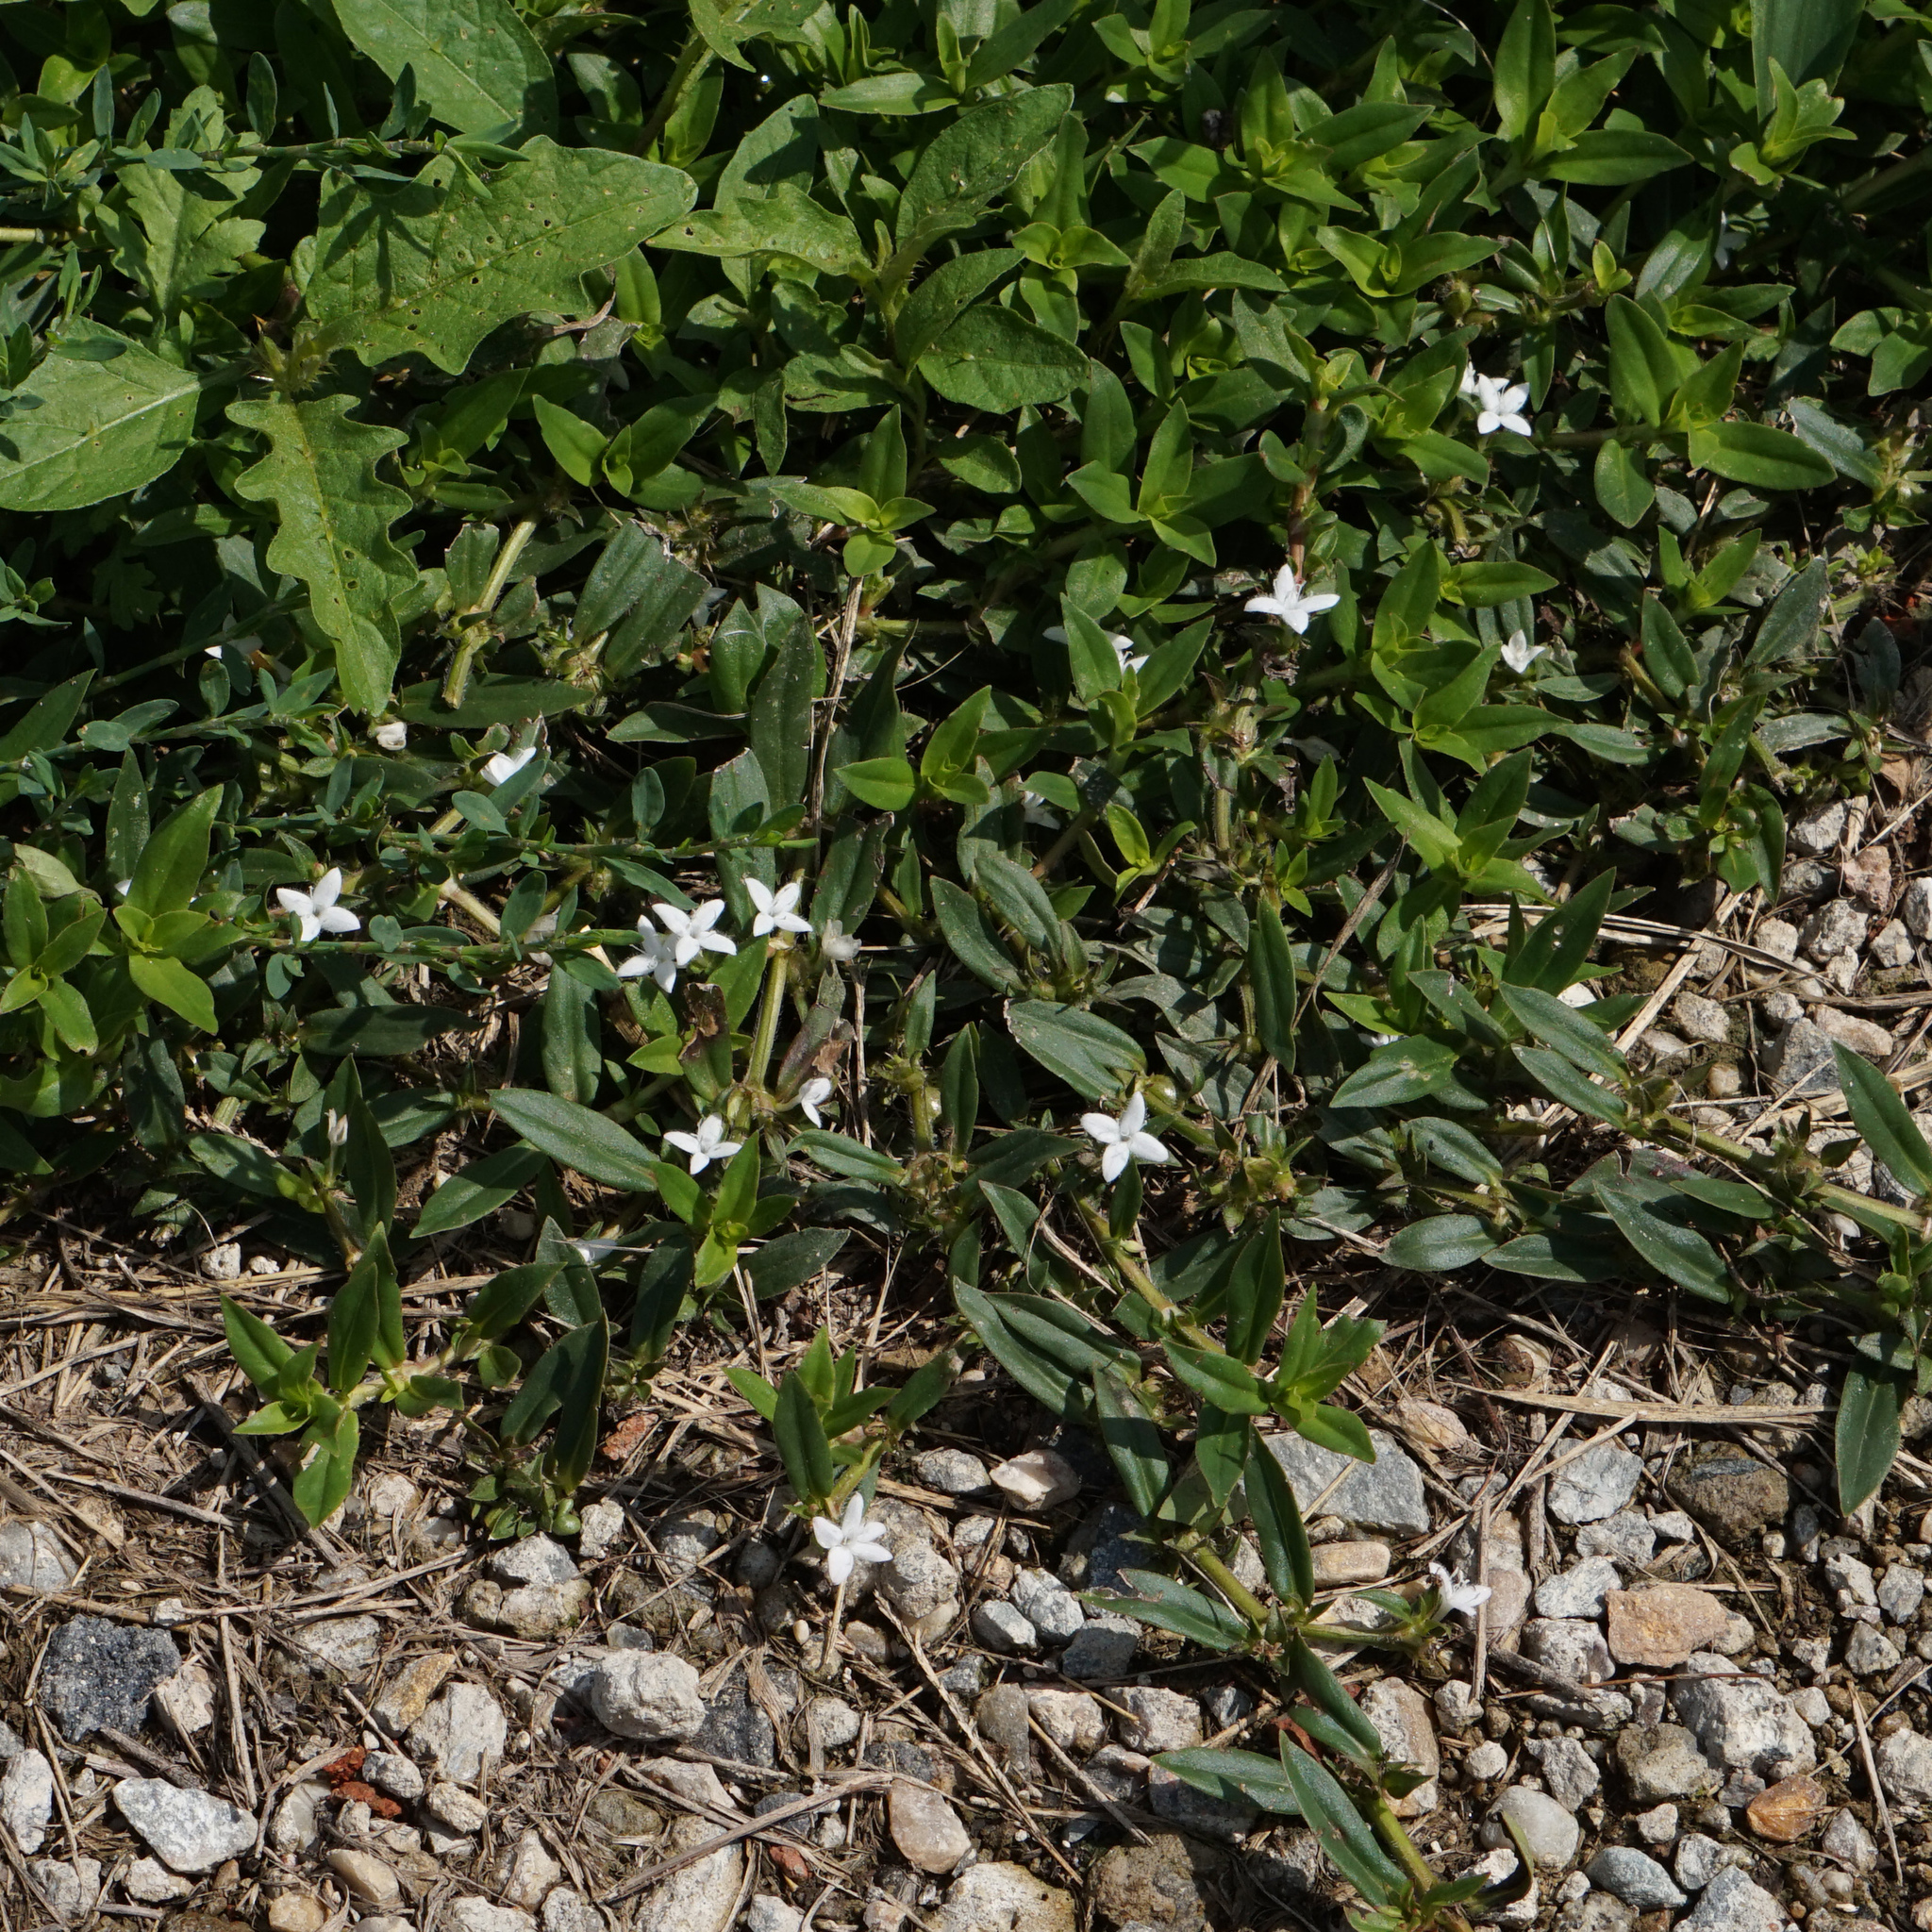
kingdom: Plantae
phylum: Tracheophyta
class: Magnoliopsida
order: Gentianales
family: Rubiaceae
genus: Diodia
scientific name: Diodia virginiana
